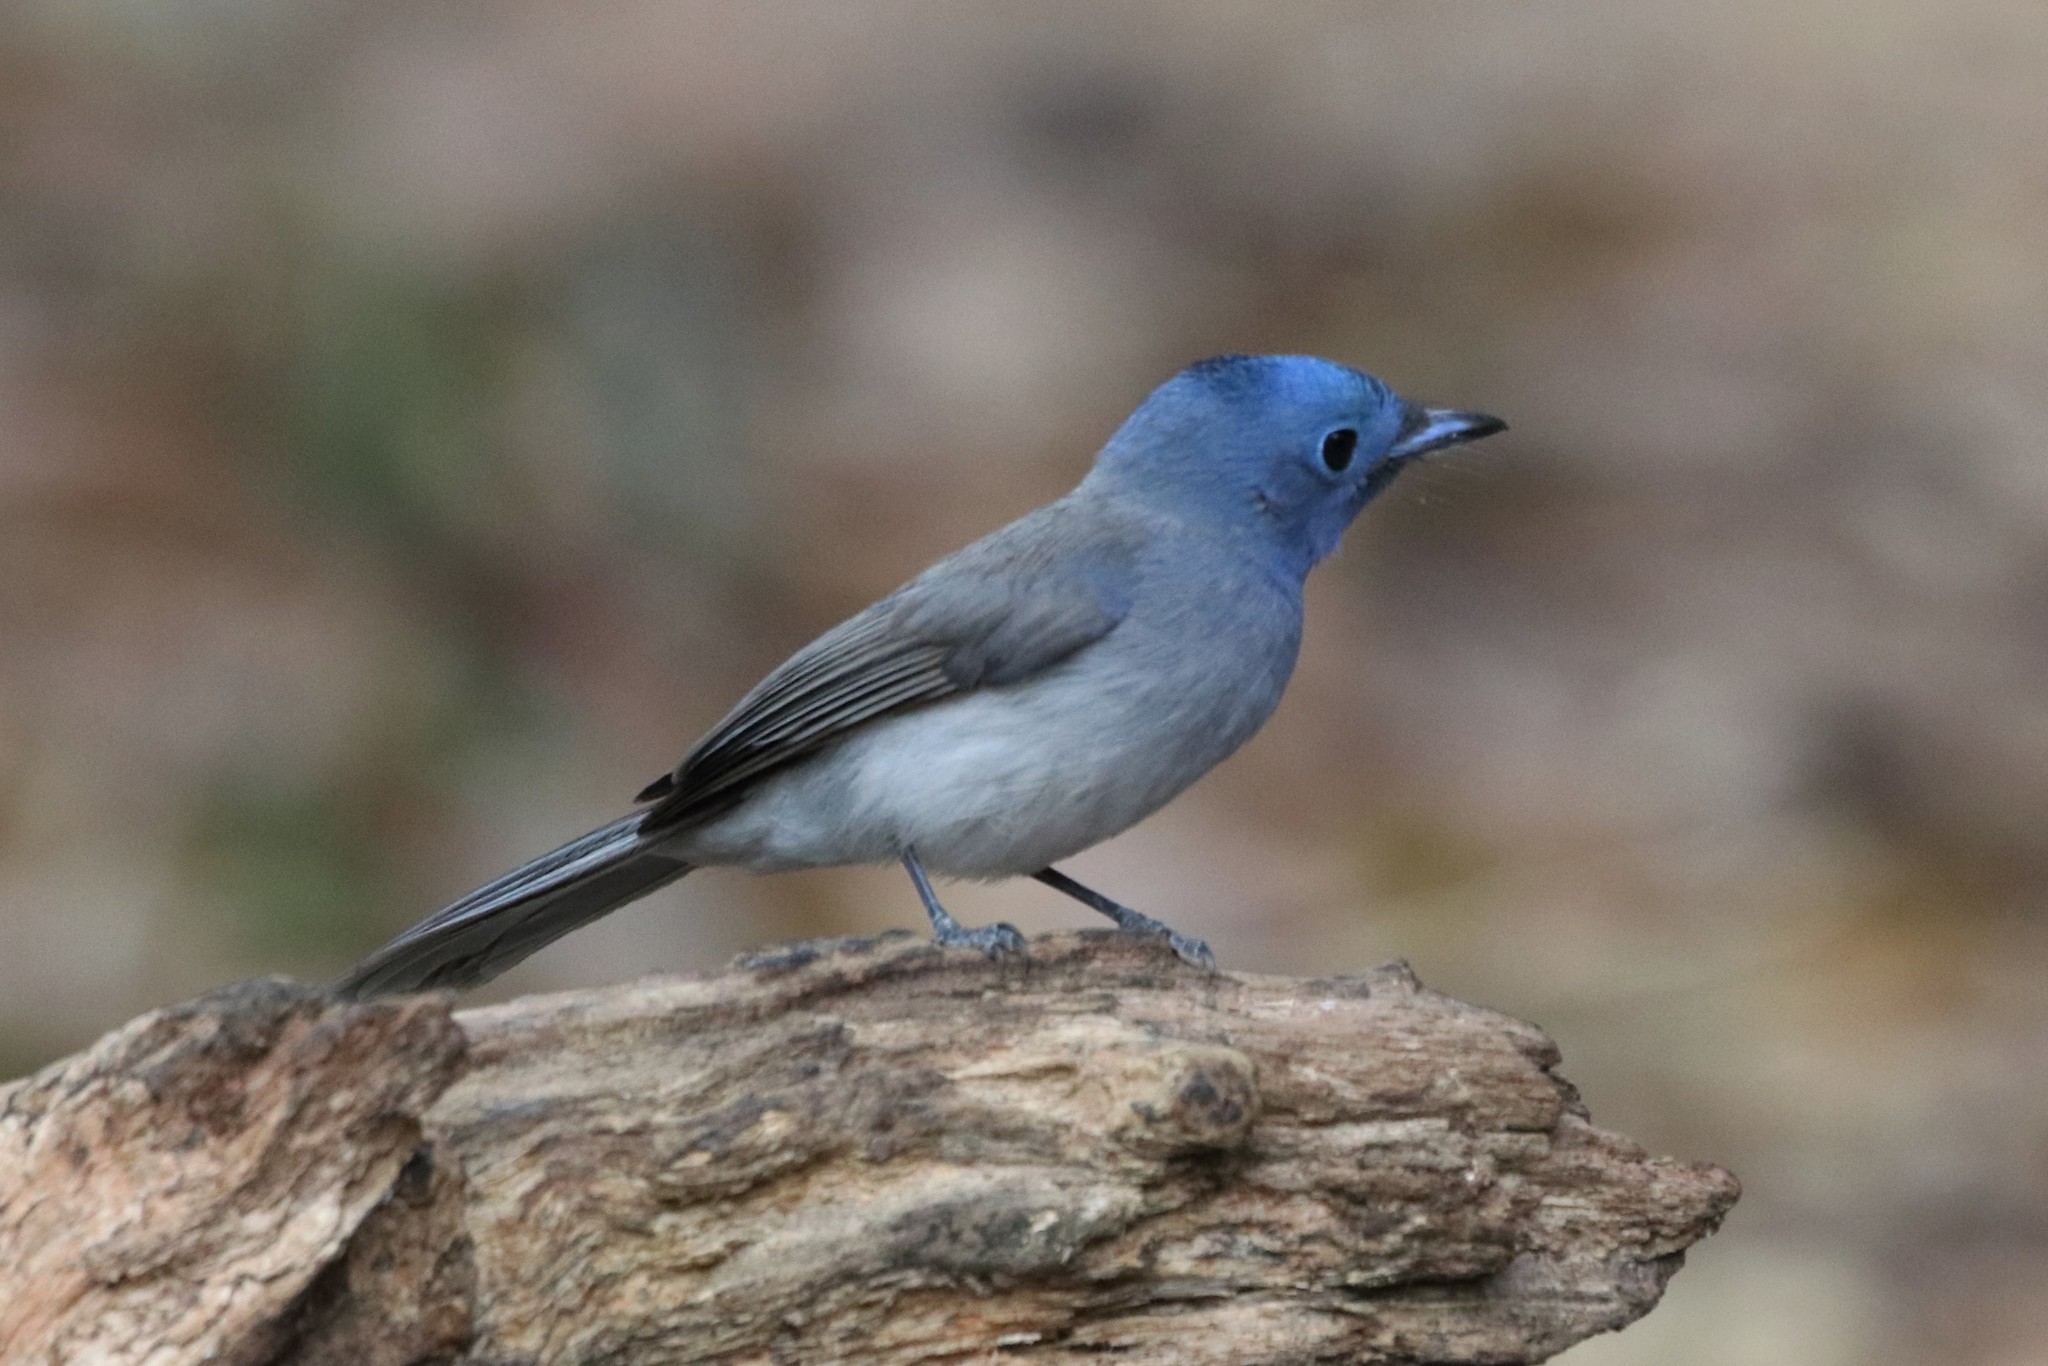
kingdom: Animalia
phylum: Chordata
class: Aves
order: Passeriformes
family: Monarchidae
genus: Hypothymis
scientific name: Hypothymis azurea
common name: Black-naped monarch
